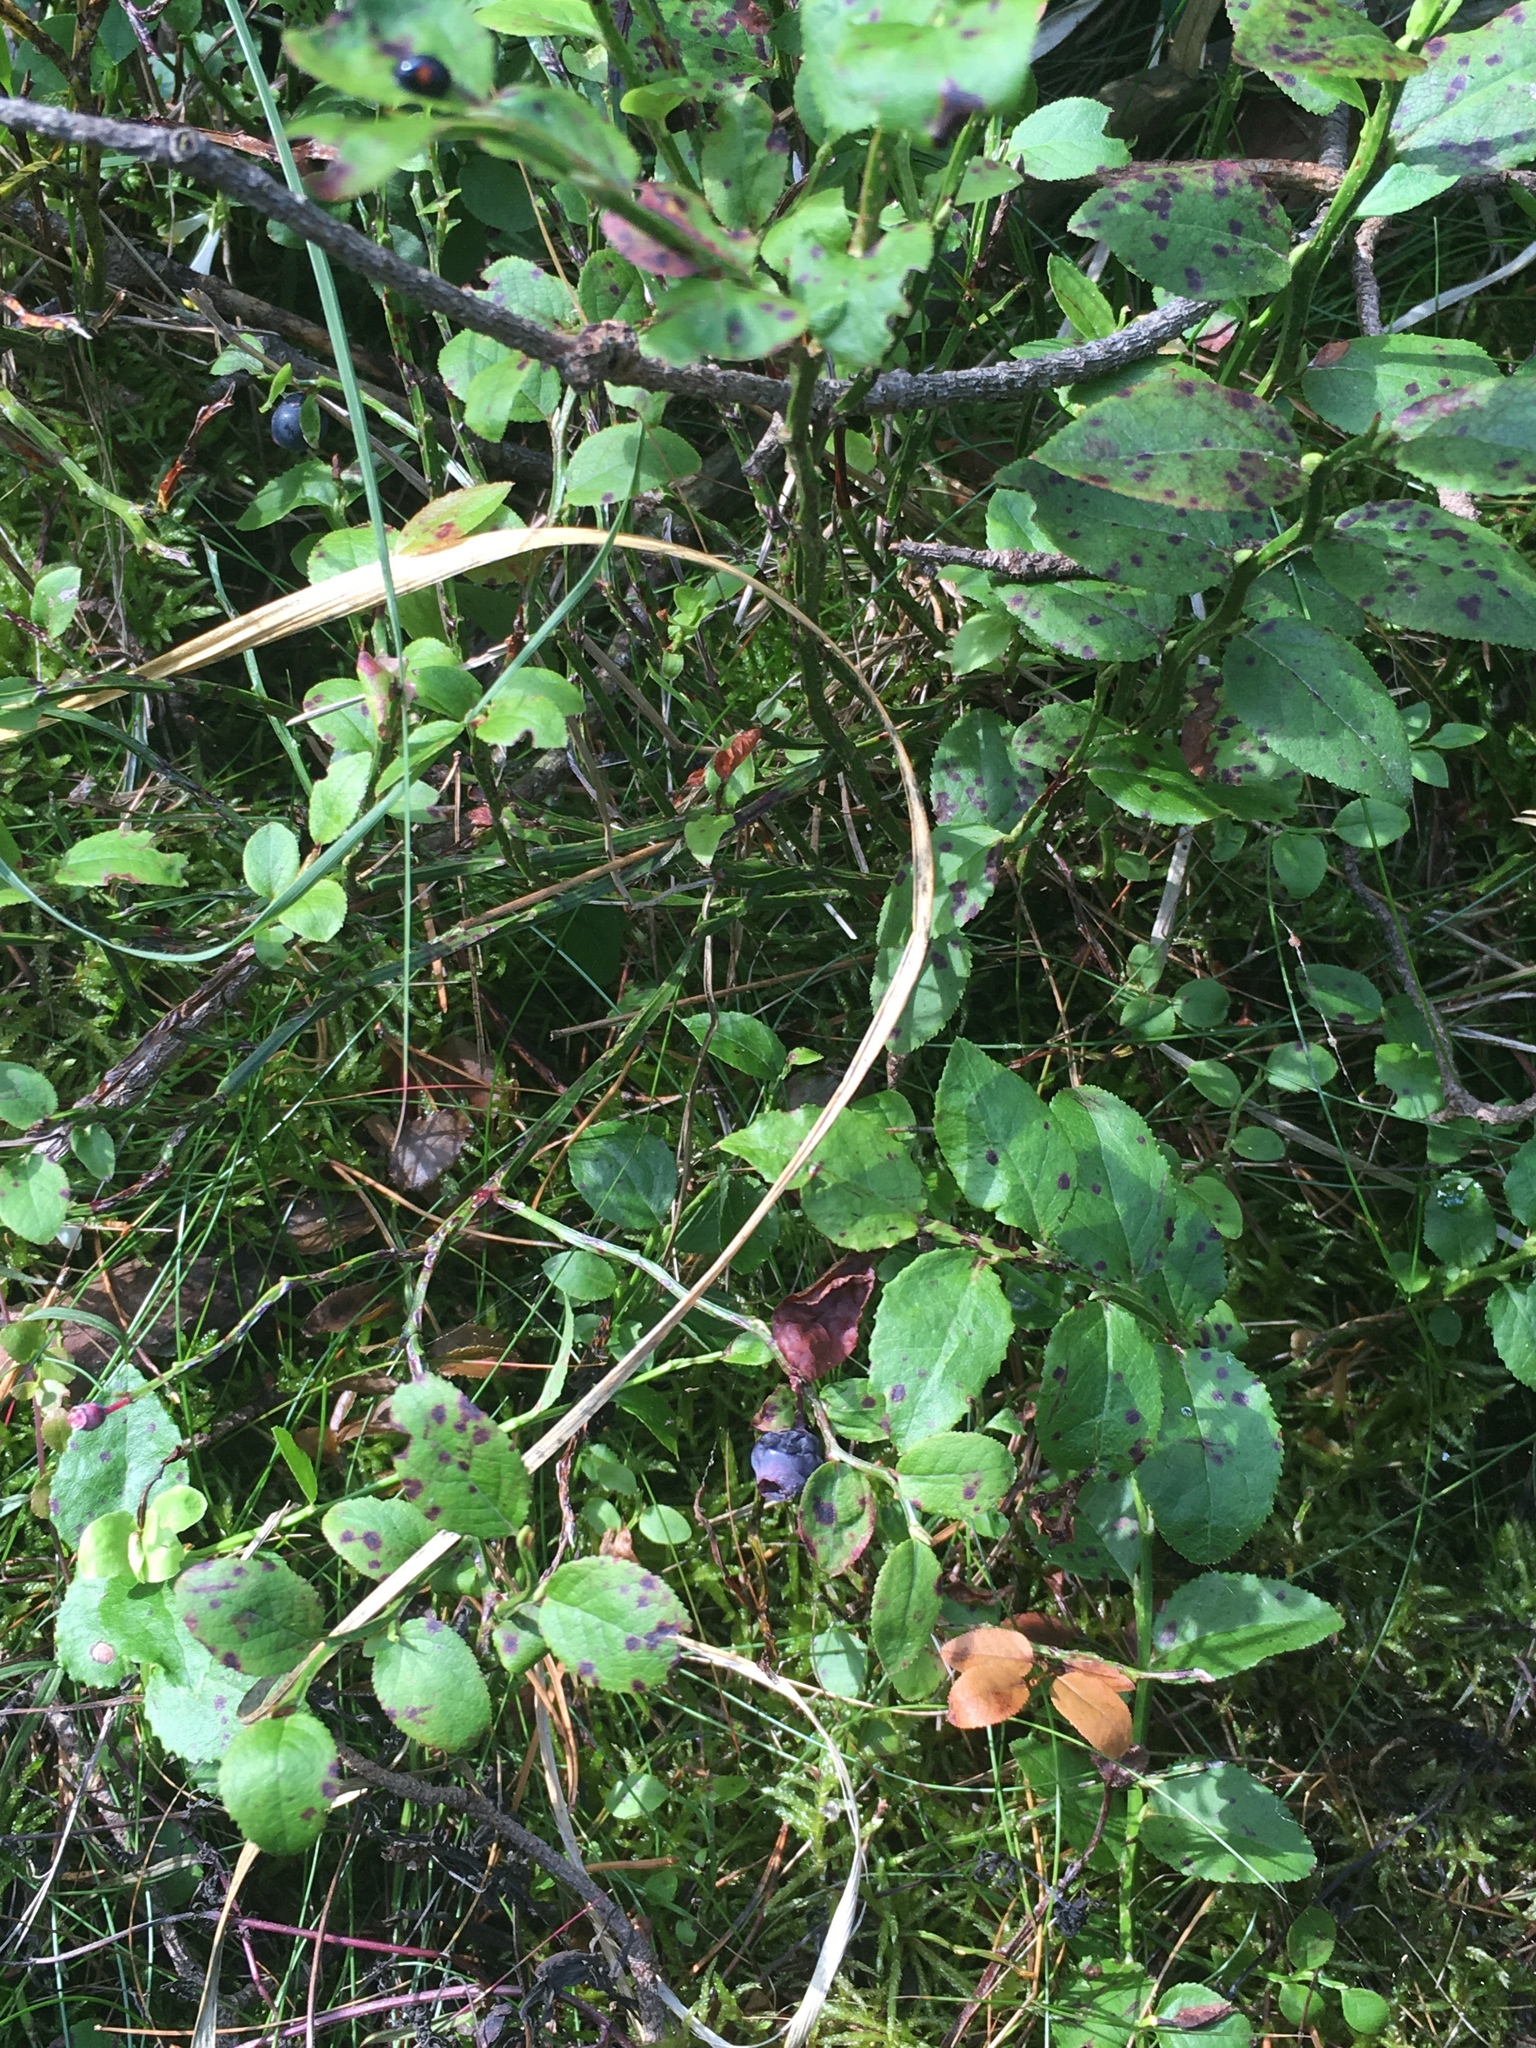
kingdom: Plantae
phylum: Tracheophyta
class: Magnoliopsida
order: Ericales
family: Ericaceae
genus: Vaccinium
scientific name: Vaccinium myrtillus
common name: Bilberry
